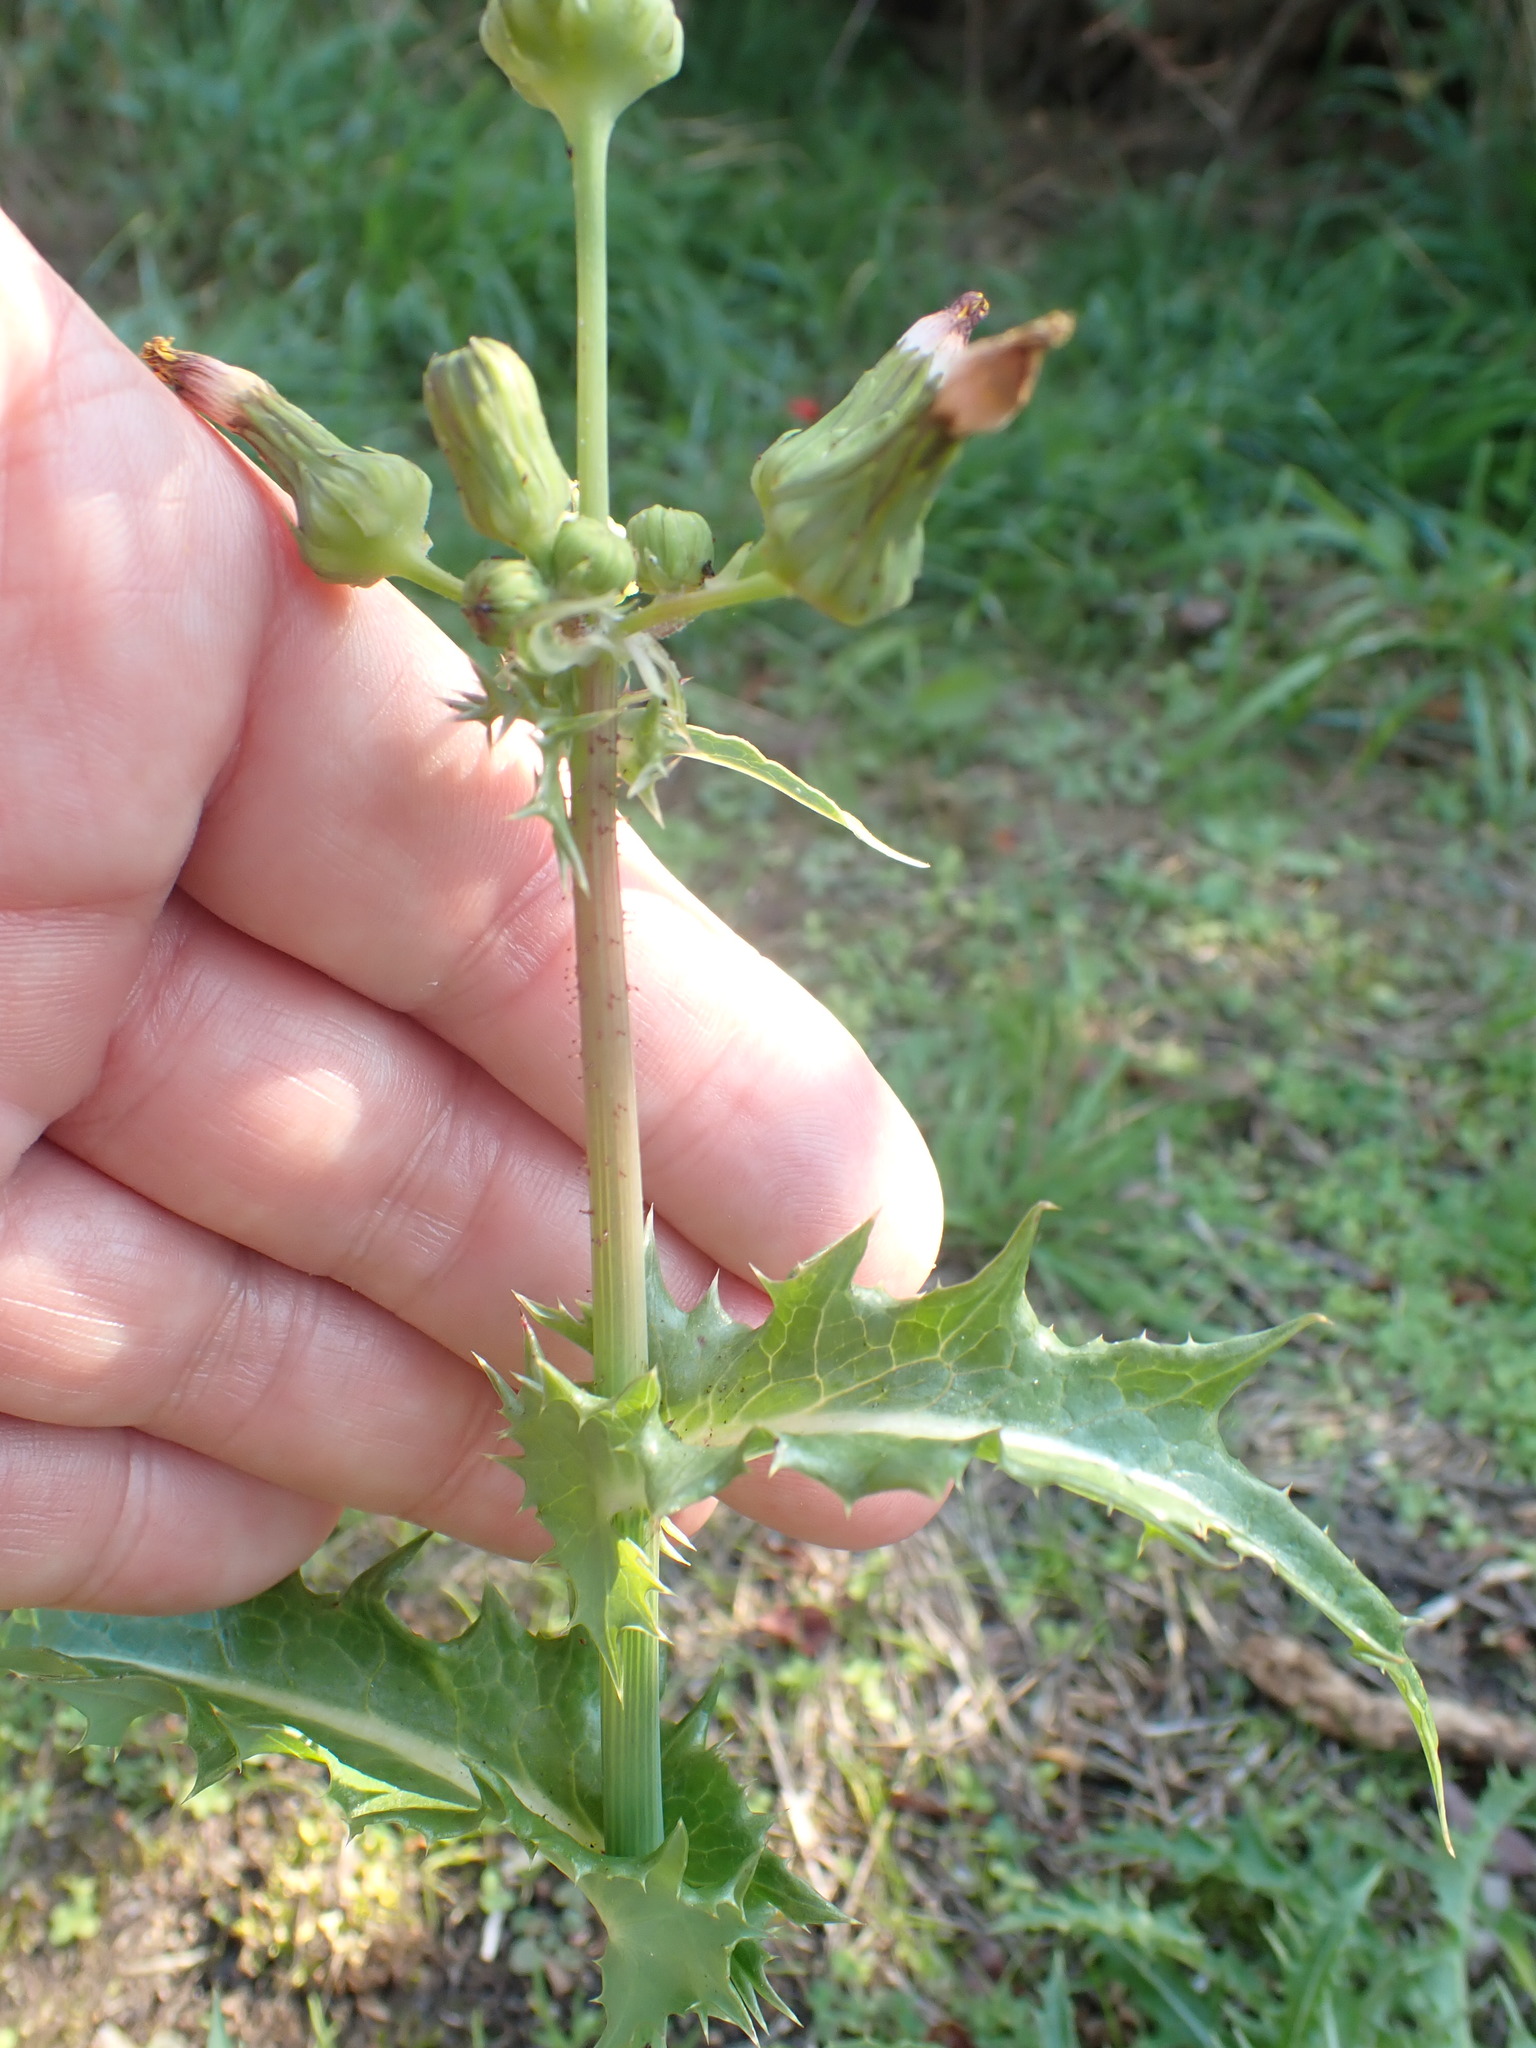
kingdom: Plantae
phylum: Tracheophyta
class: Magnoliopsida
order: Asterales
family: Asteraceae
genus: Sonchus
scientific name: Sonchus asper
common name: Prickly sow-thistle
